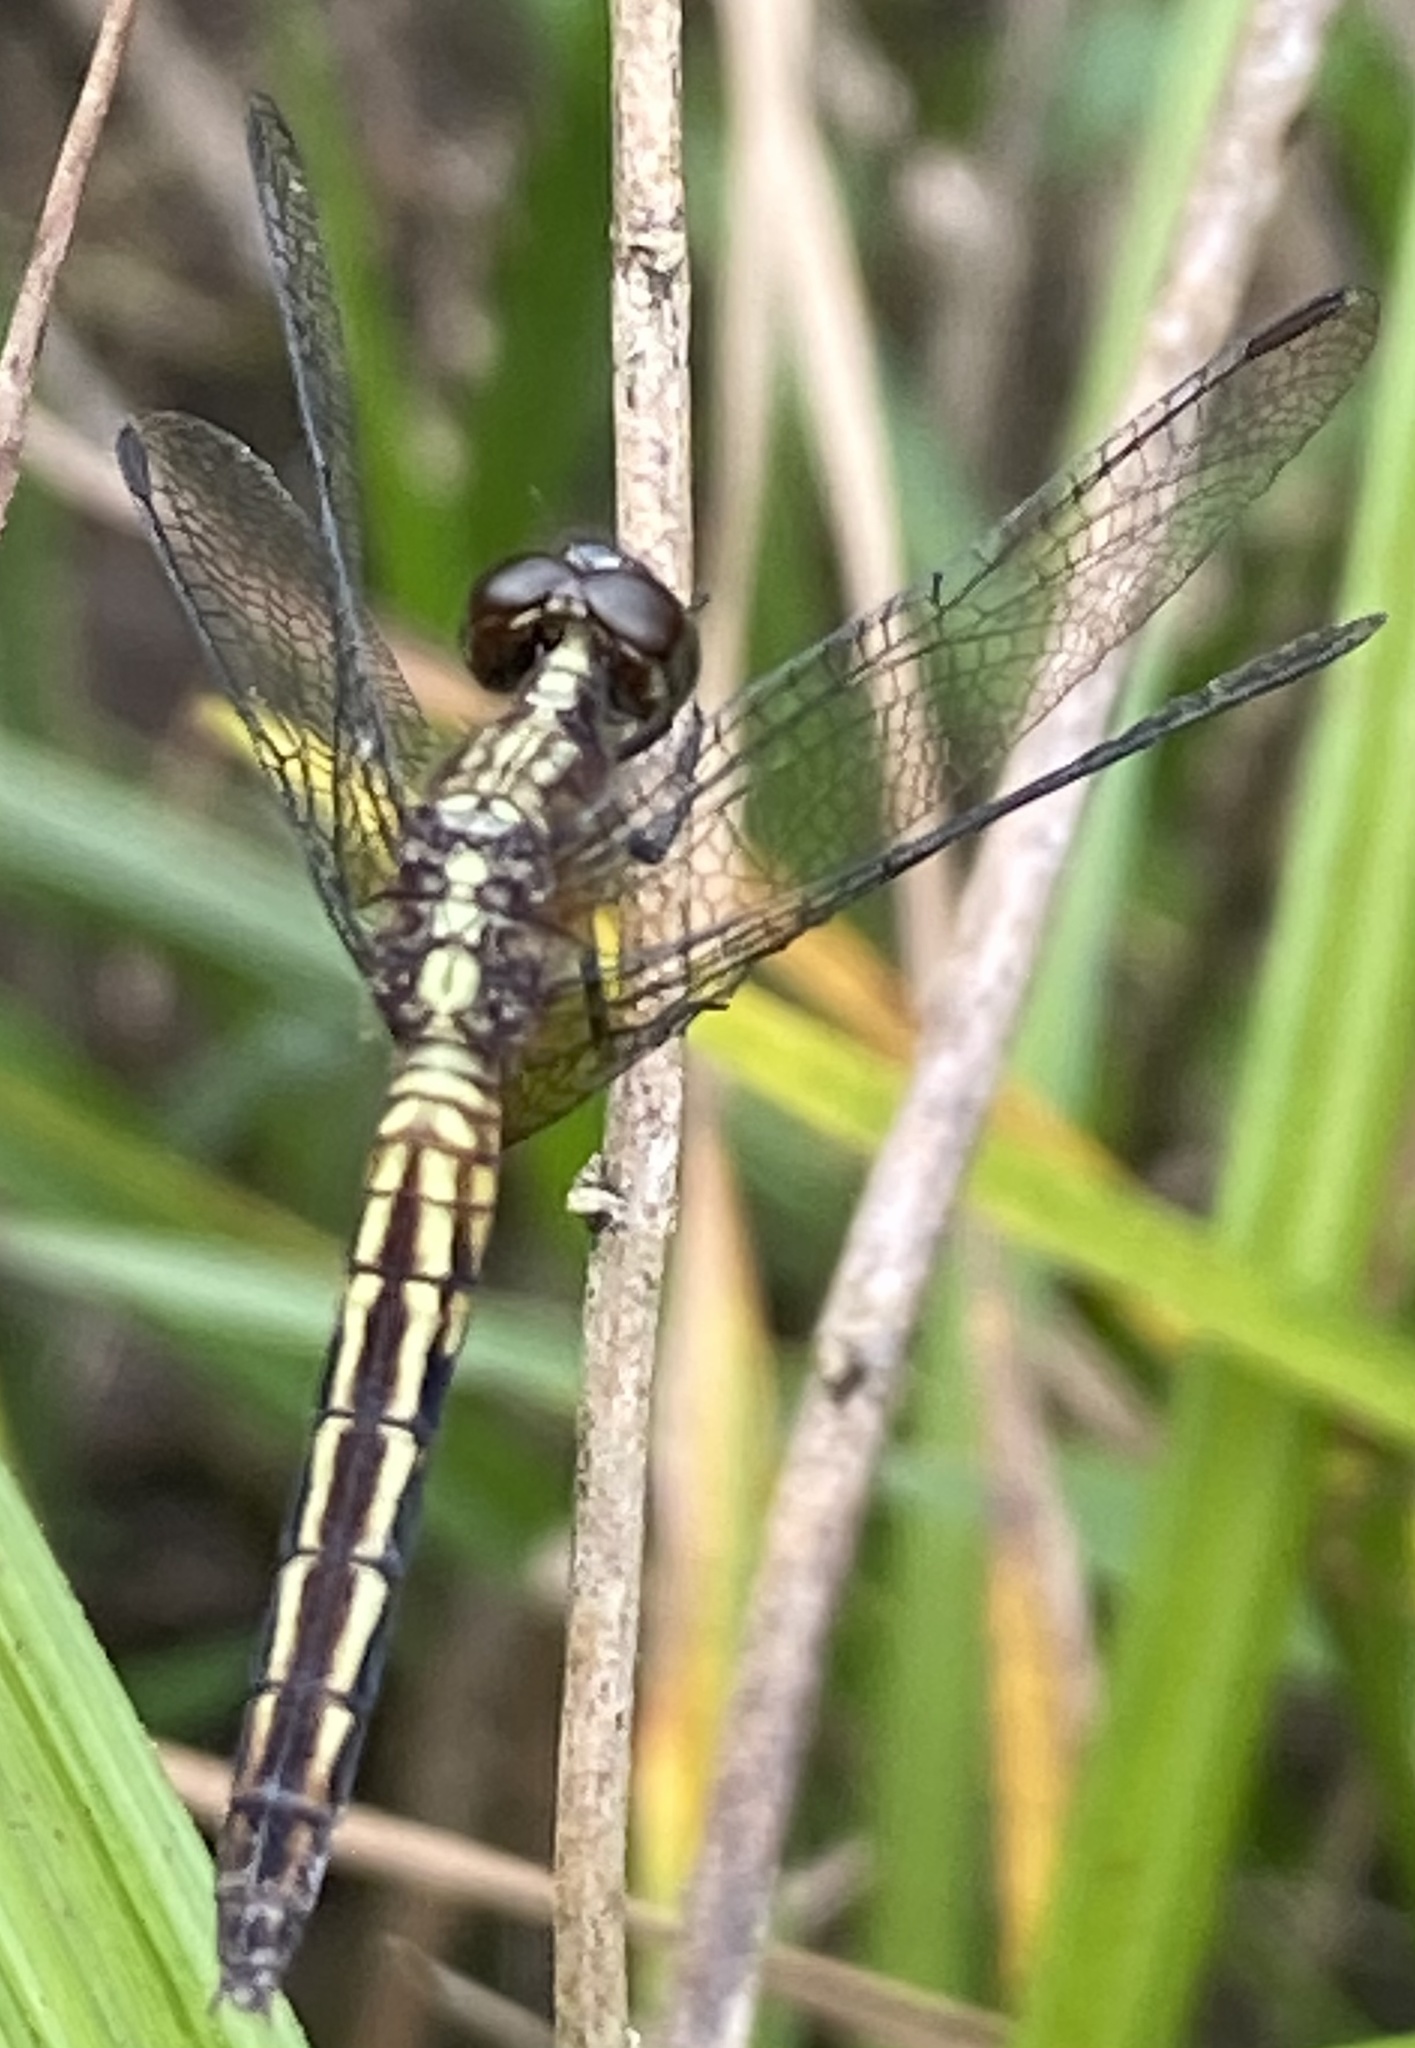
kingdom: Animalia
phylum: Arthropoda
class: Insecta
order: Odonata
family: Libellulidae
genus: Erythrodiplax
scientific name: Erythrodiplax avittata
